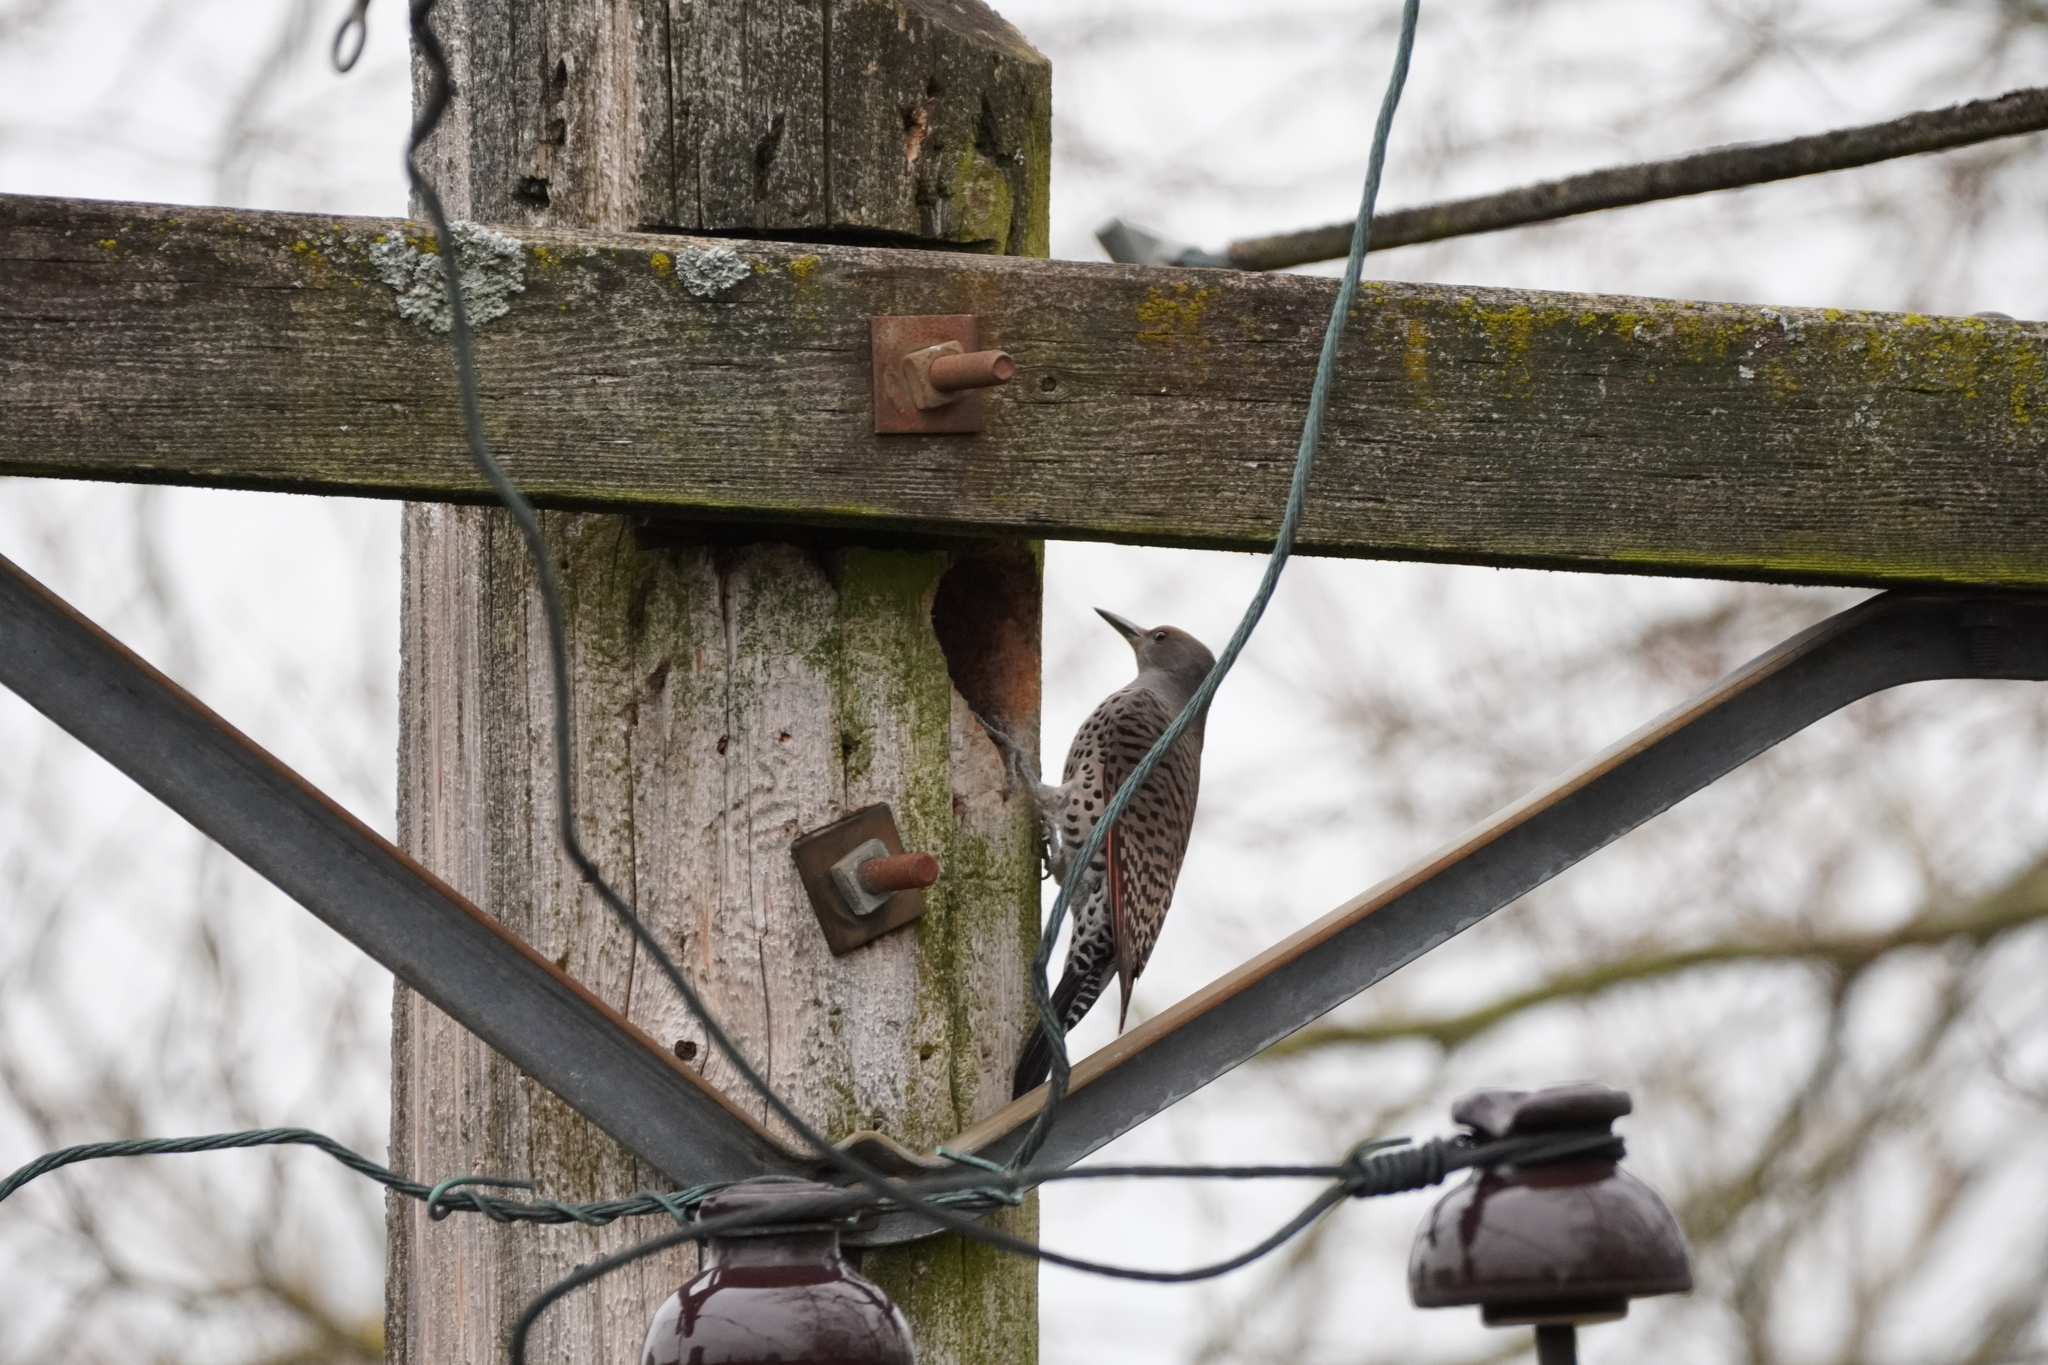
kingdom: Animalia
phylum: Chordata
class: Aves
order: Piciformes
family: Picidae
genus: Colaptes
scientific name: Colaptes auratus
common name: Northern flicker
